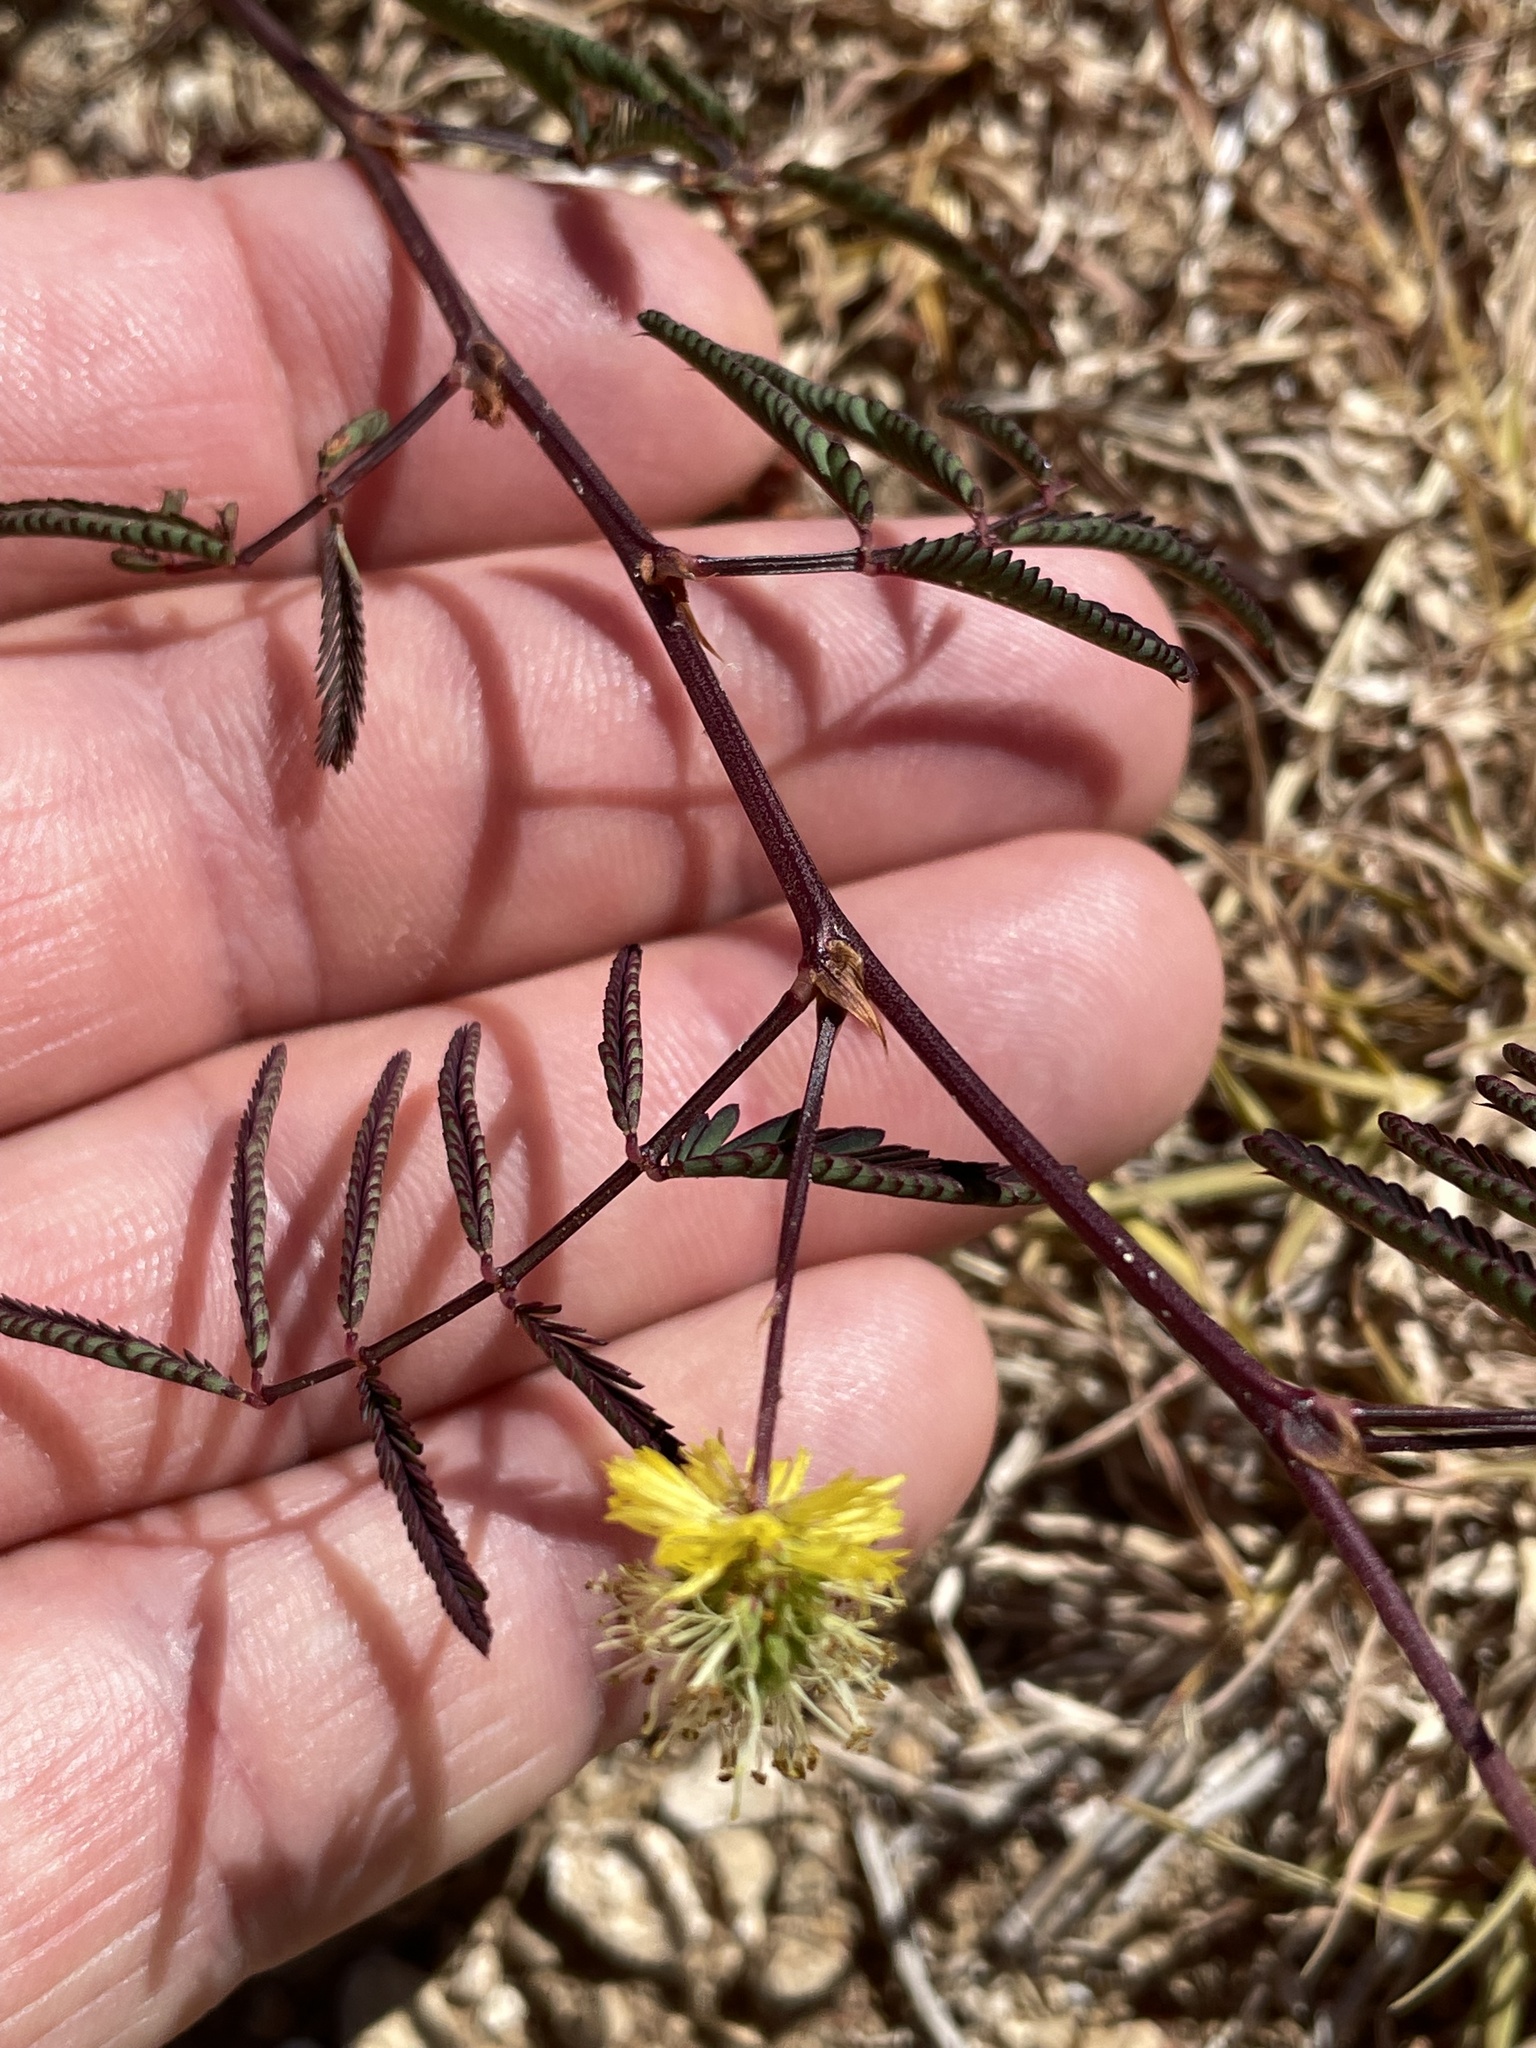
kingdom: Plantae
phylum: Tracheophyta
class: Magnoliopsida
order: Fabales
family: Fabaceae
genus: Neptunia
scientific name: Neptunia pubescens
